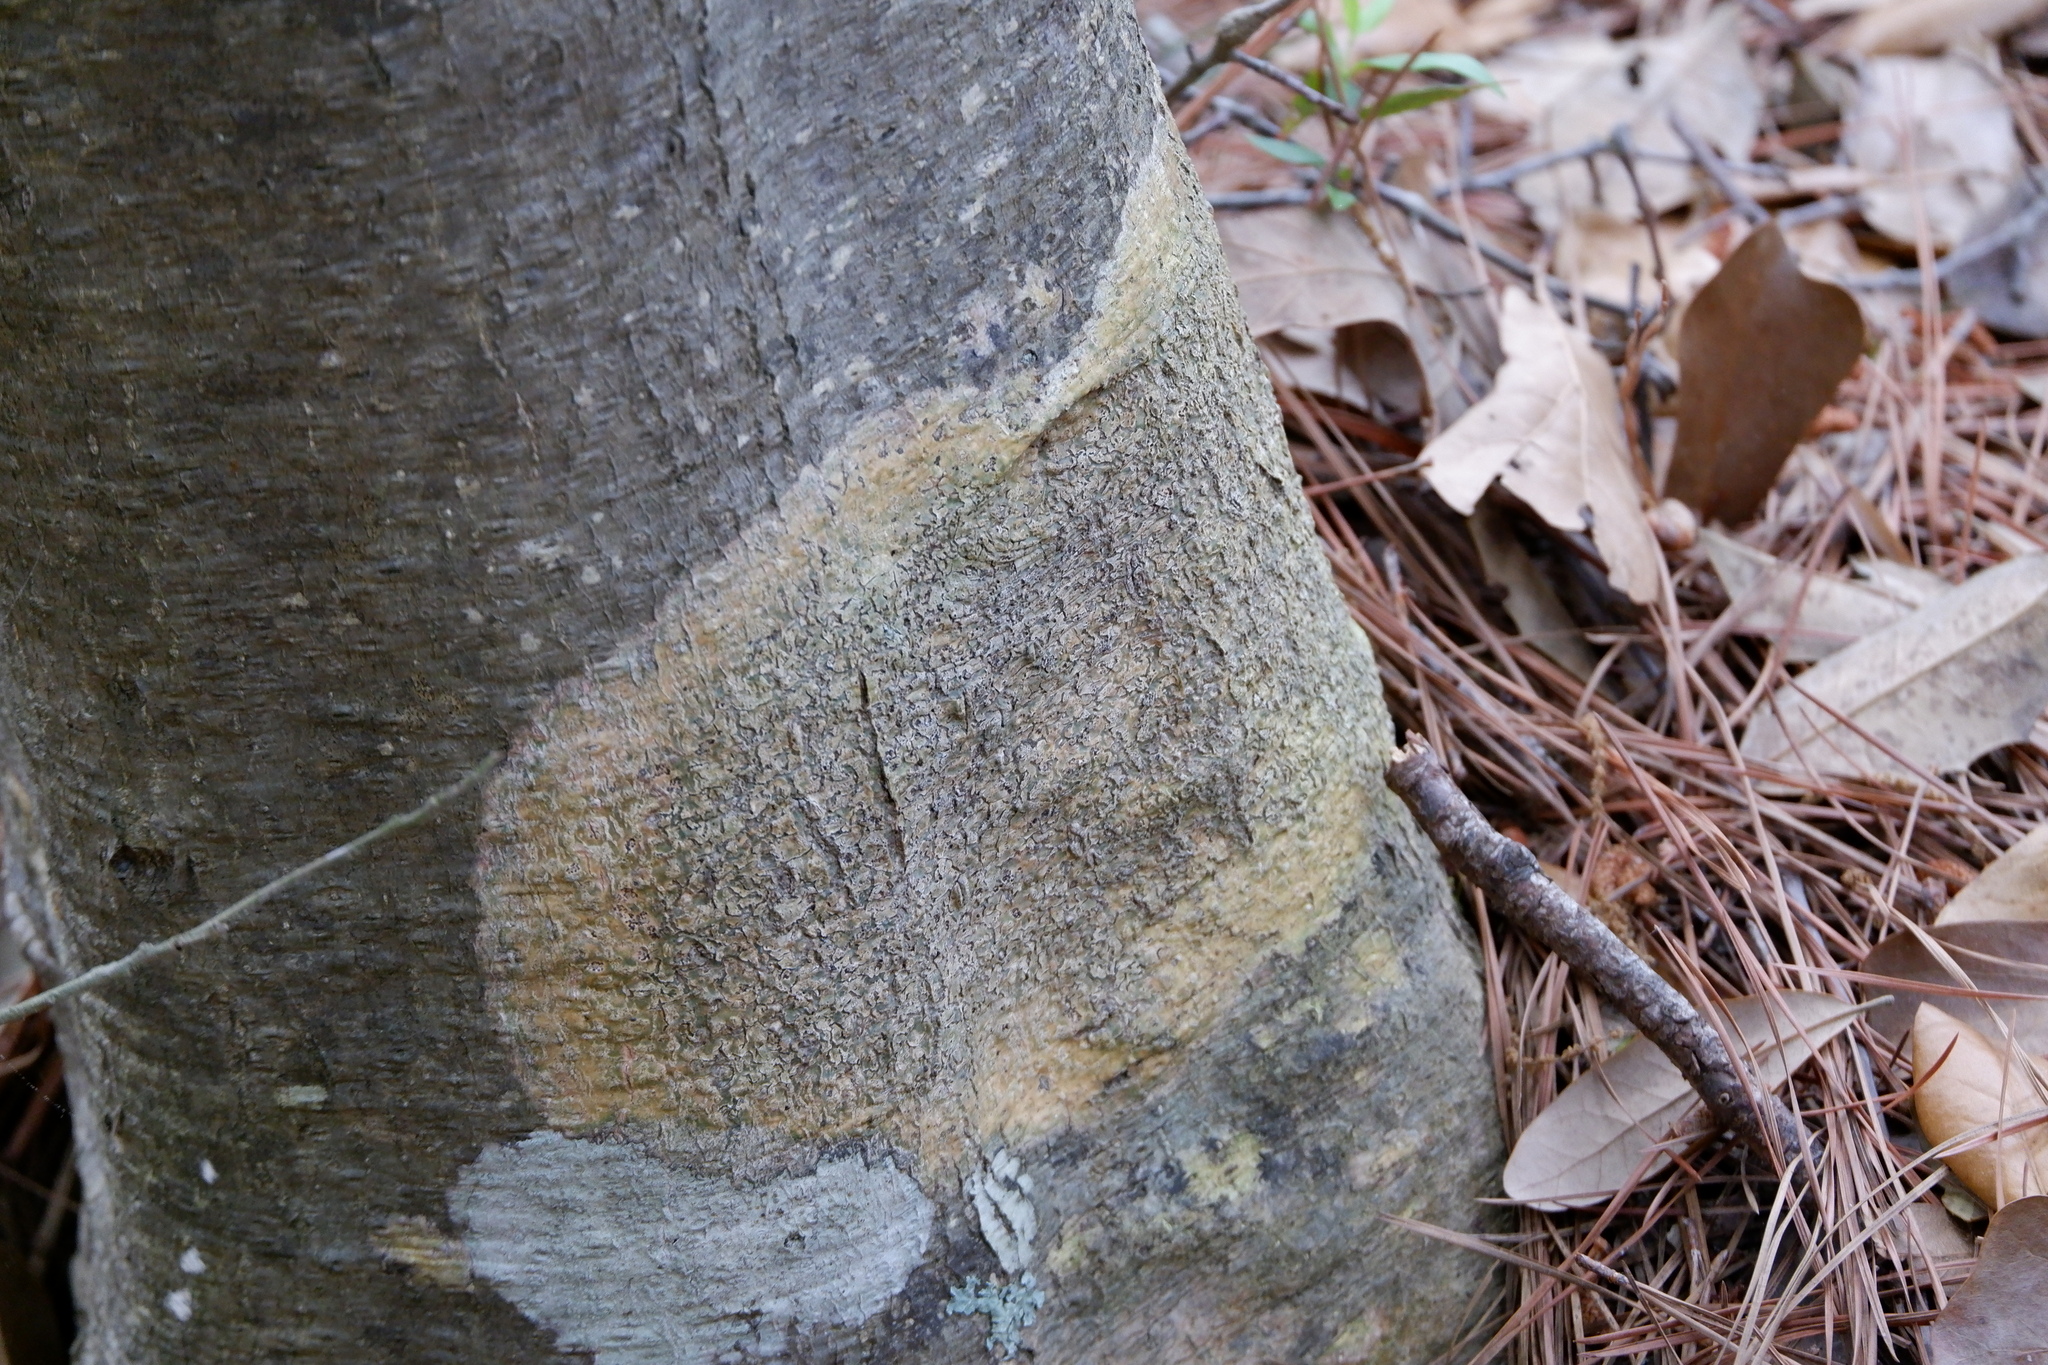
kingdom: Fungi
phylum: Ascomycota
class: Dothideomycetes
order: Trypetheliales
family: Trypetheliaceae
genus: Viridothelium
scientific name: Viridothelium virens
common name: Speckled blister lichen
